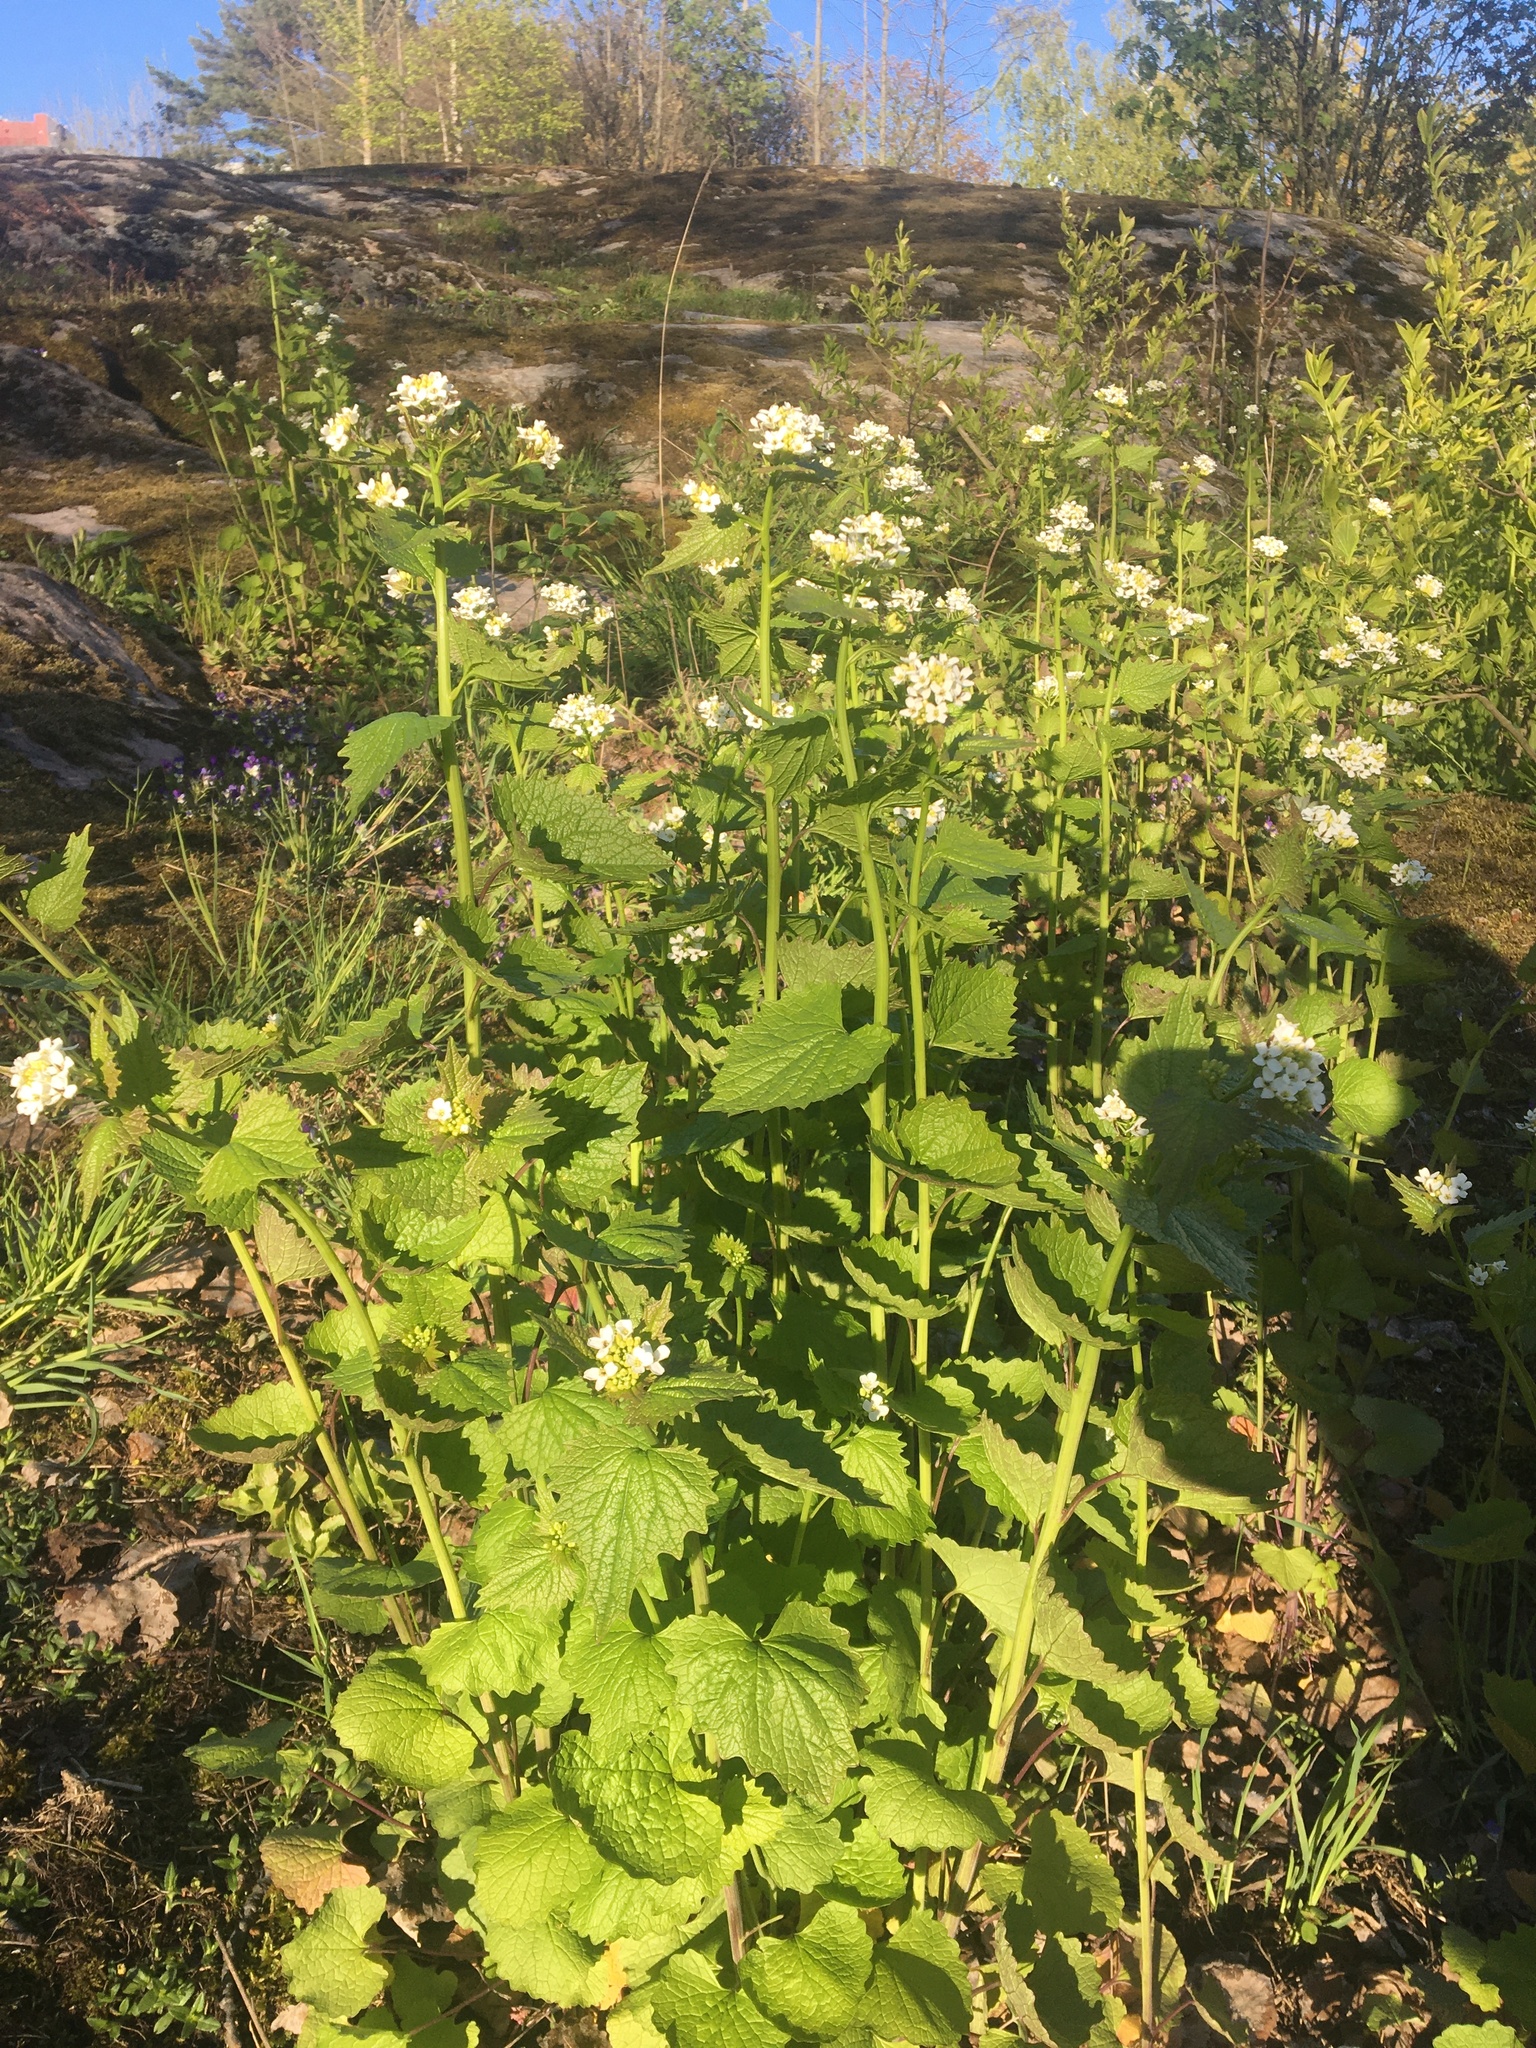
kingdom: Plantae
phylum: Tracheophyta
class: Magnoliopsida
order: Brassicales
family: Brassicaceae
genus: Alliaria
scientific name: Alliaria petiolata
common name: Garlic mustard
